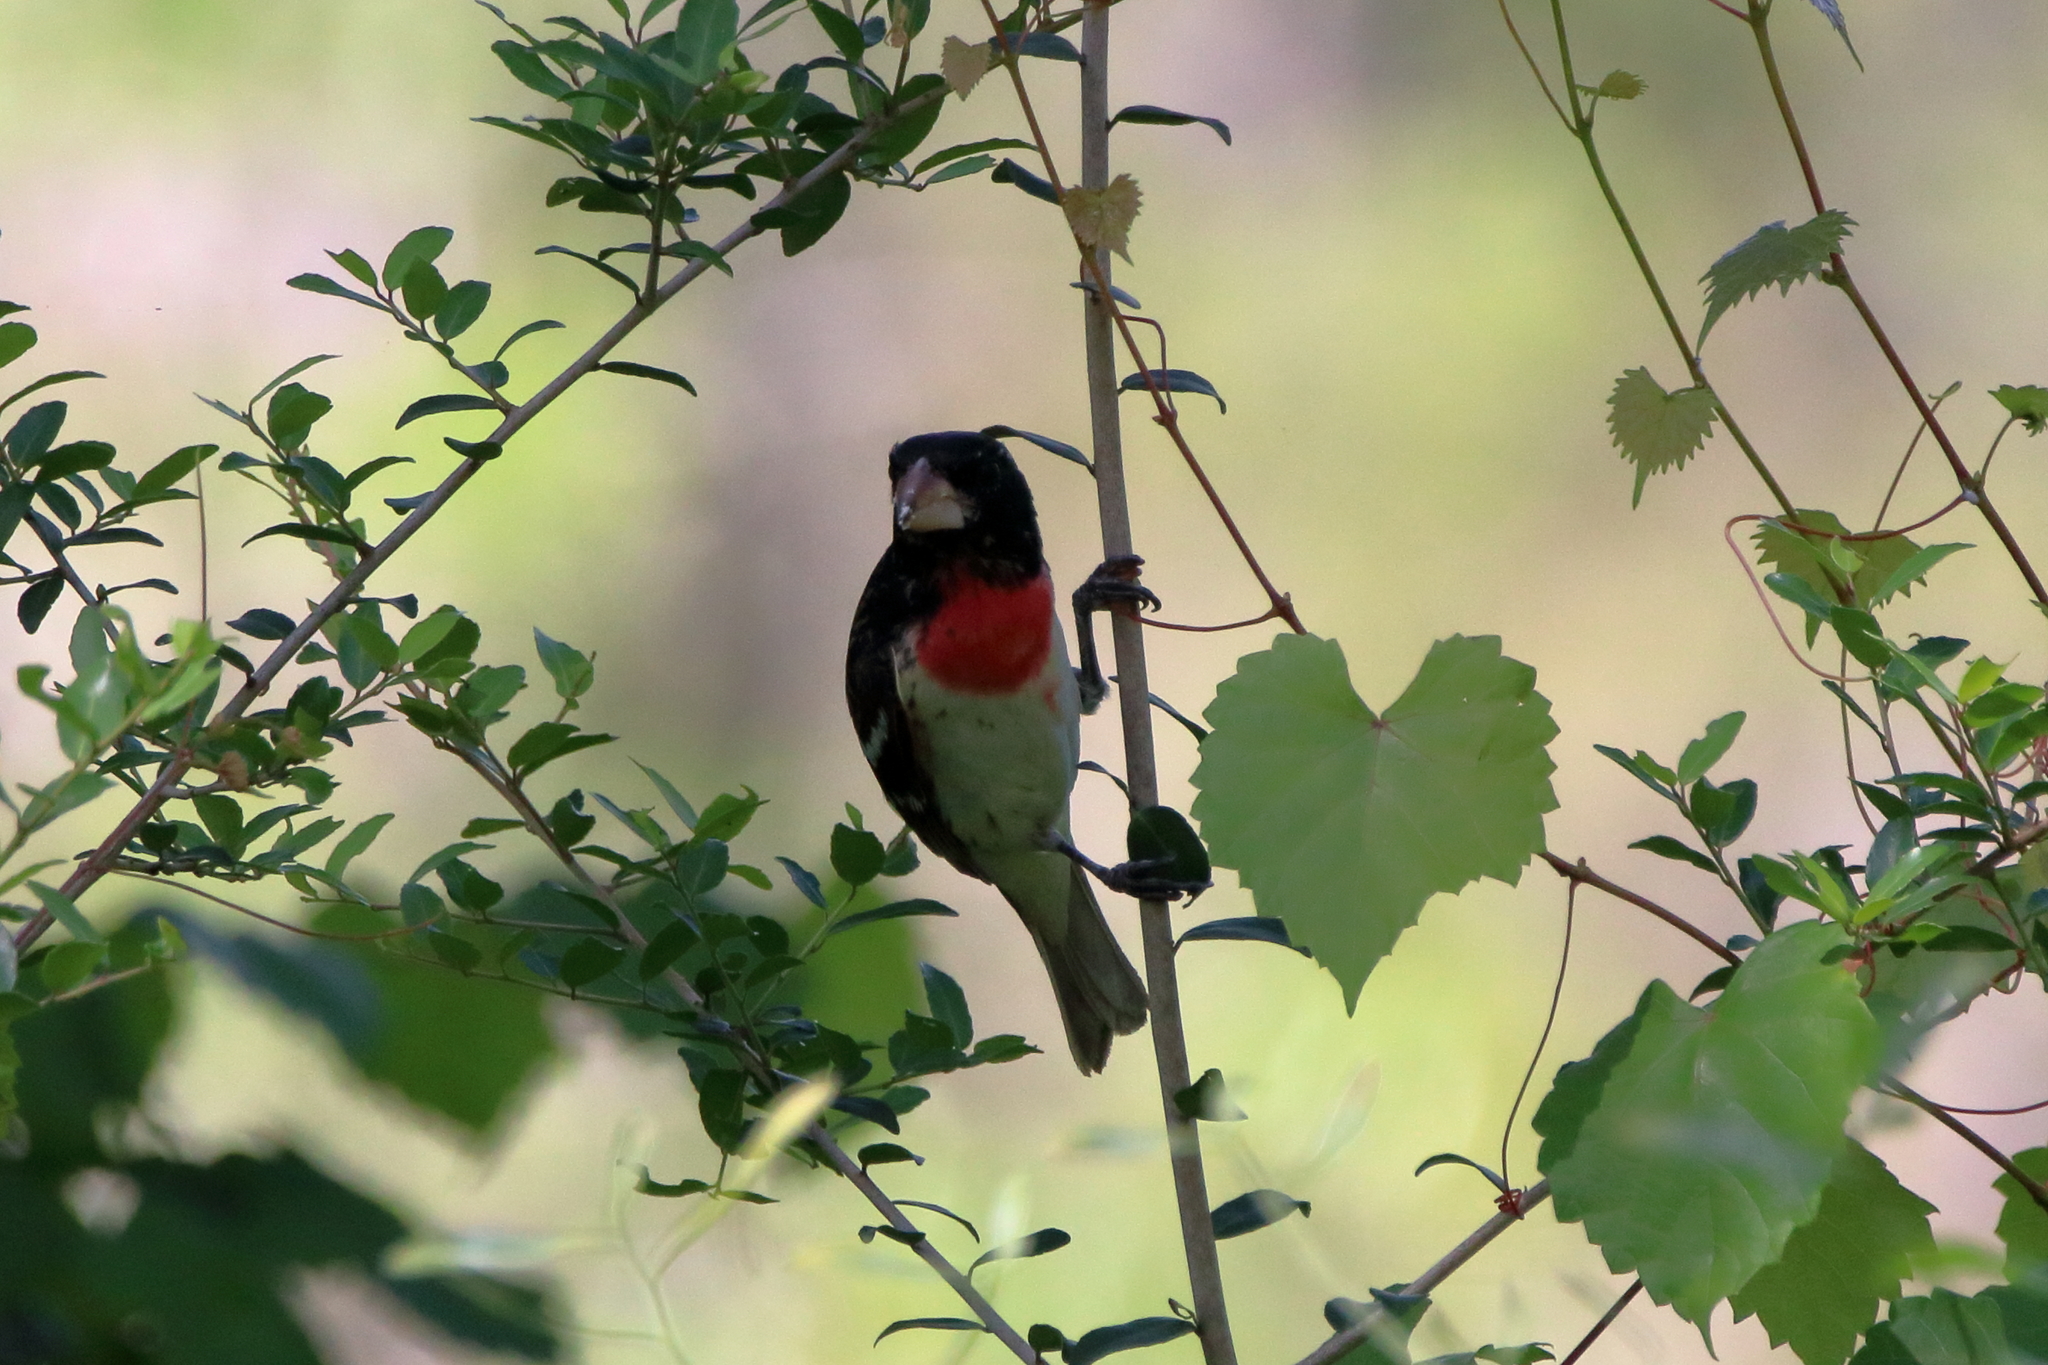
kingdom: Animalia
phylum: Chordata
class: Aves
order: Passeriformes
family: Cardinalidae
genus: Pheucticus
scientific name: Pheucticus ludovicianus
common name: Rose-breasted grosbeak
